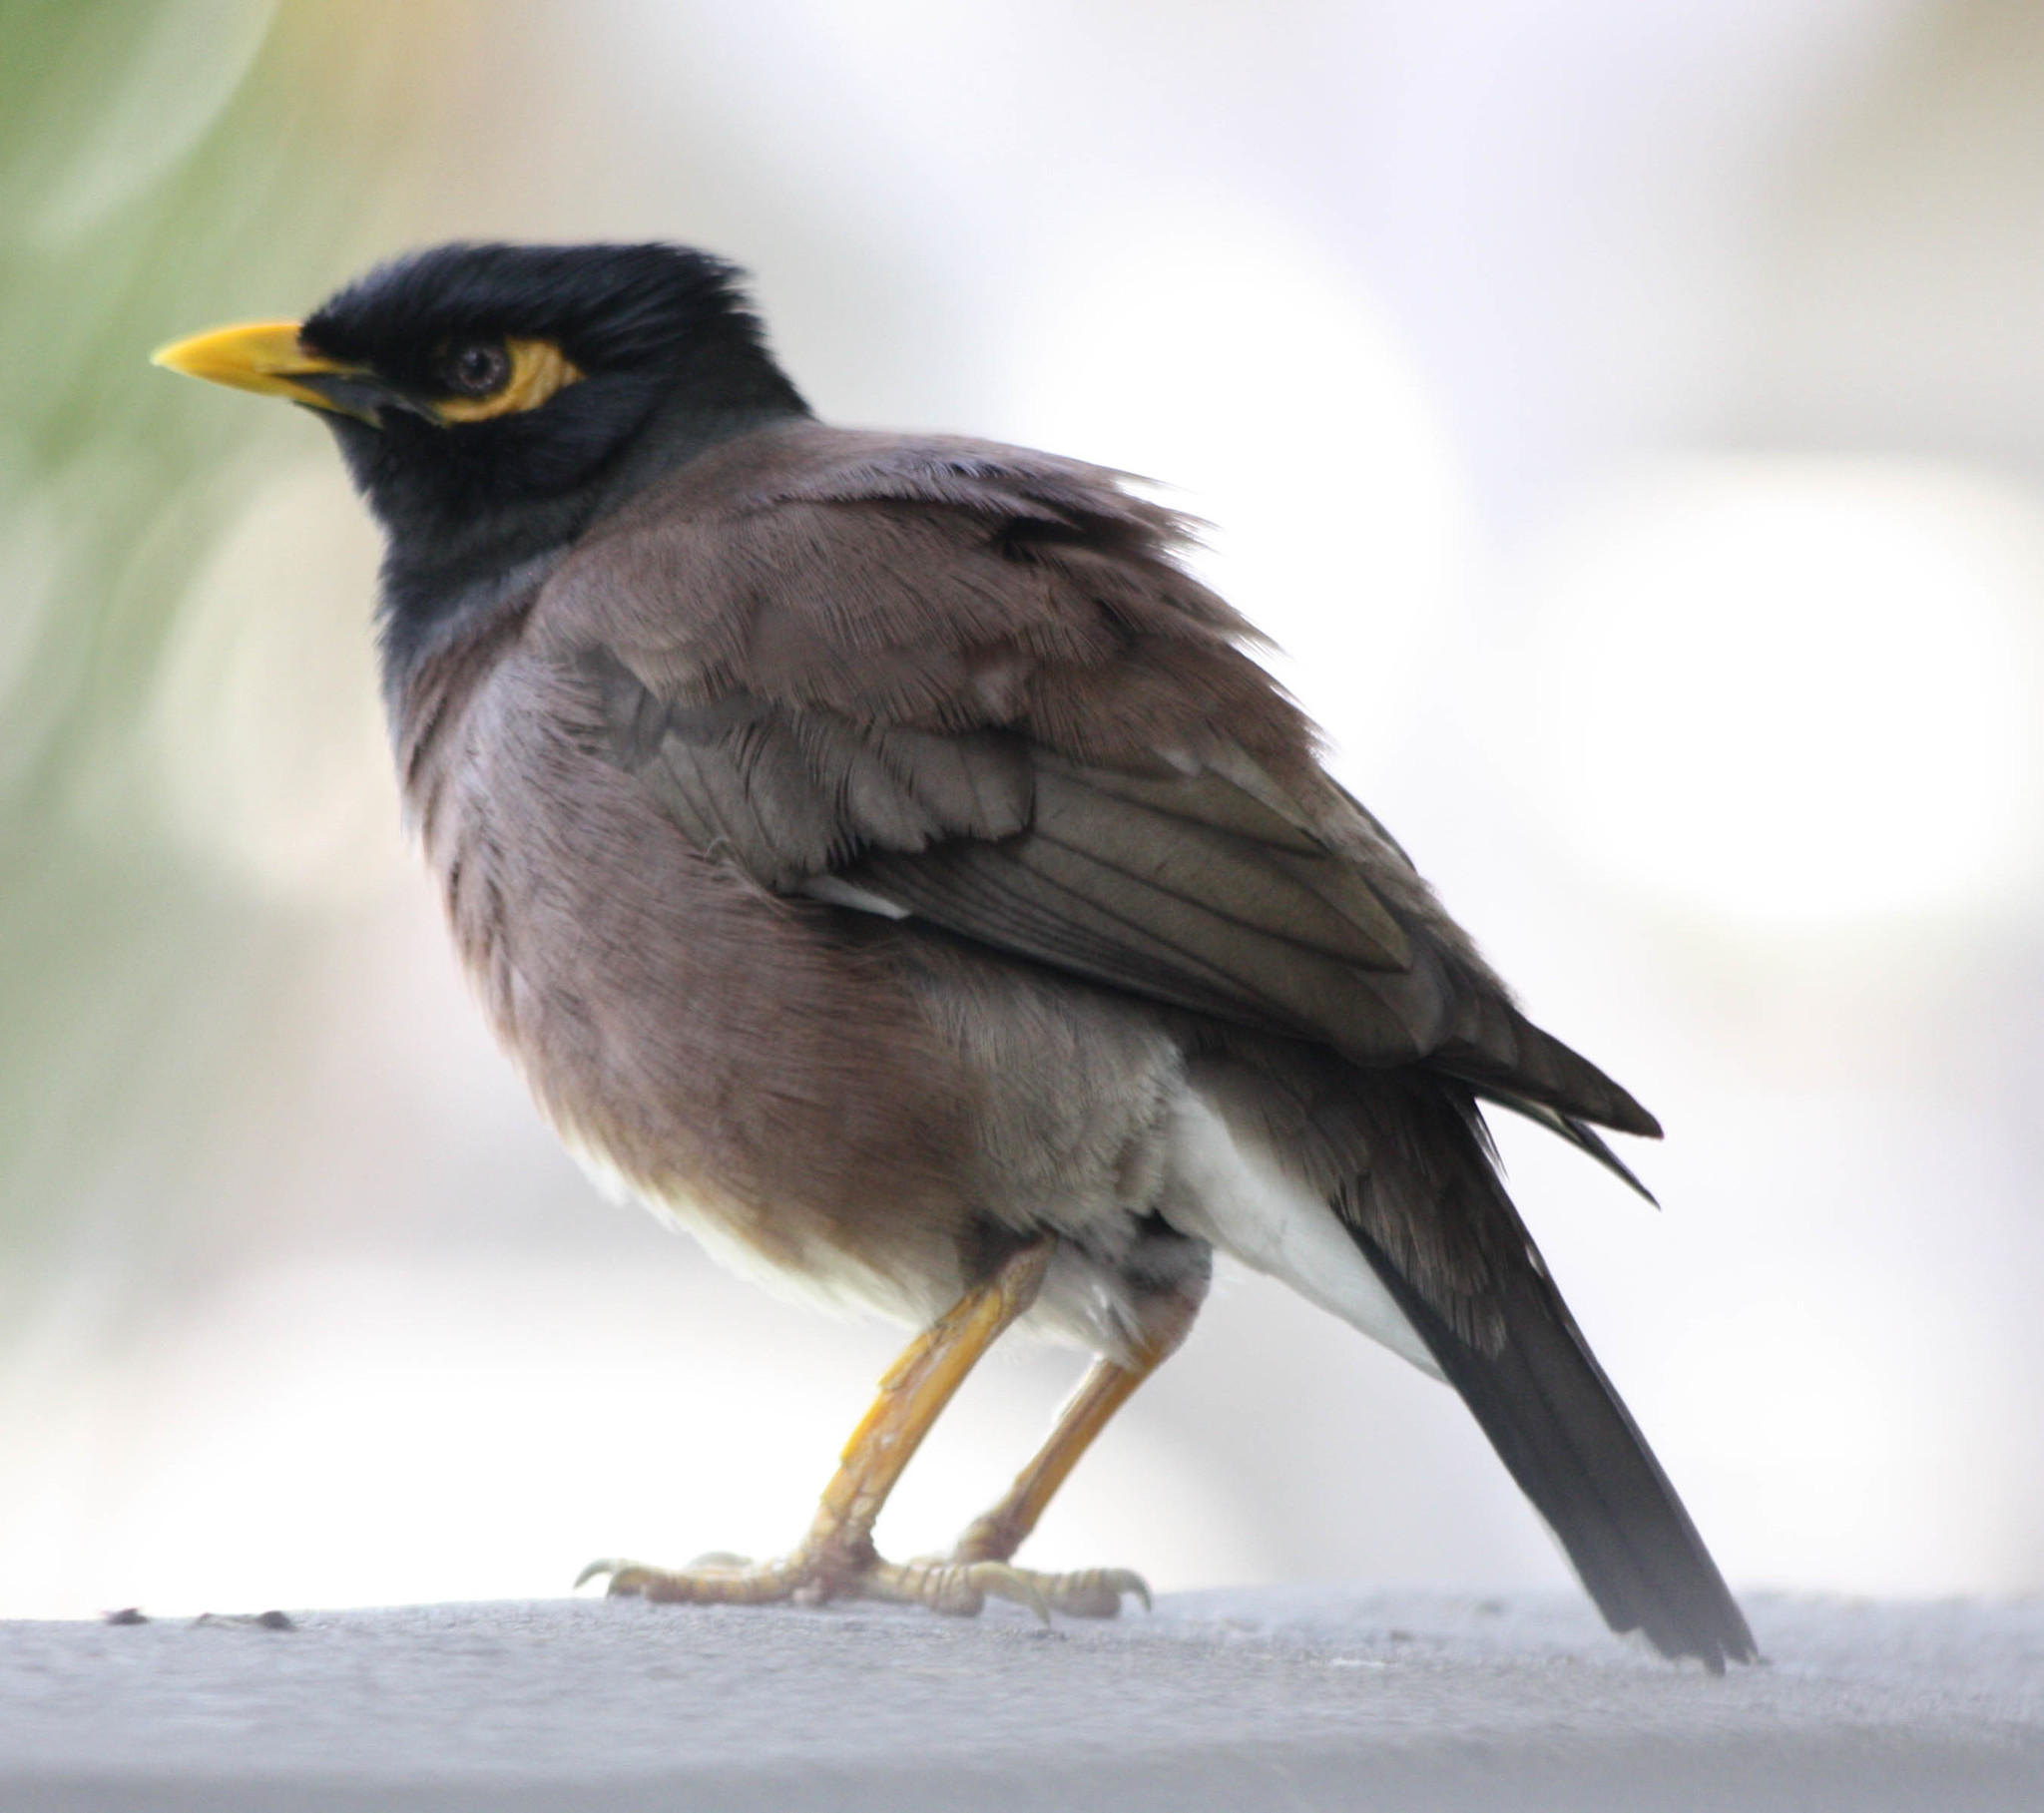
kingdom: Animalia
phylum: Chordata
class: Aves
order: Passeriformes
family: Sturnidae
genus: Acridotheres
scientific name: Acridotheres tristis
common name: Common myna
